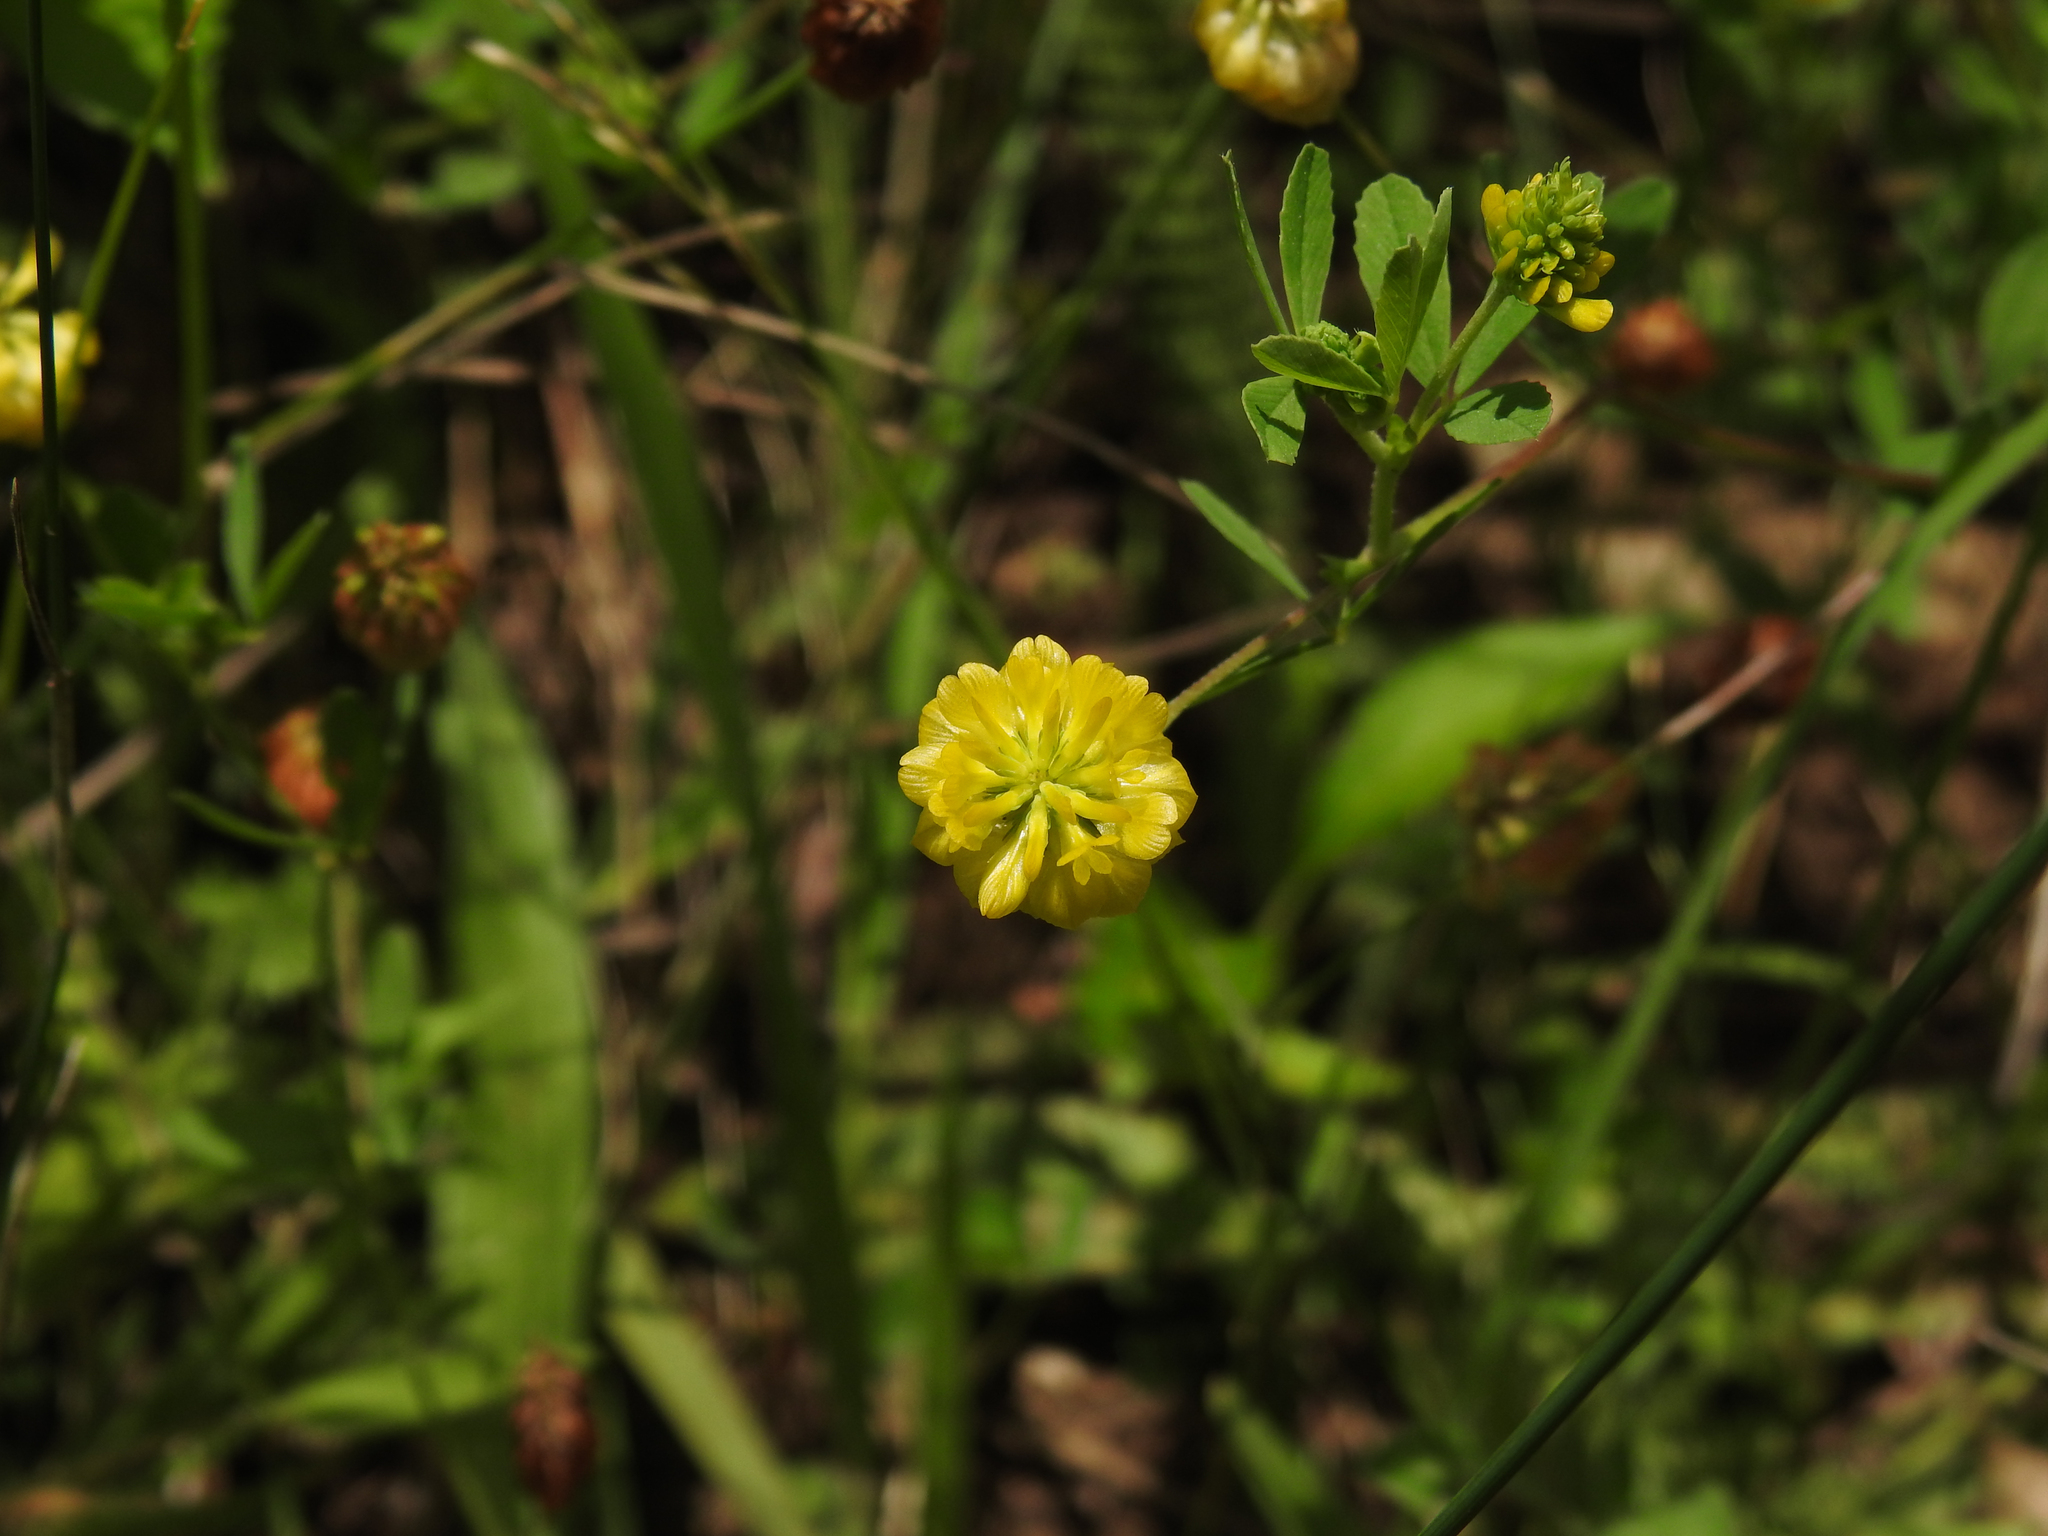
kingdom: Plantae
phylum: Tracheophyta
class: Magnoliopsida
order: Fabales
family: Fabaceae
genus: Trifolium
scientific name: Trifolium aureum
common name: Golden clover
